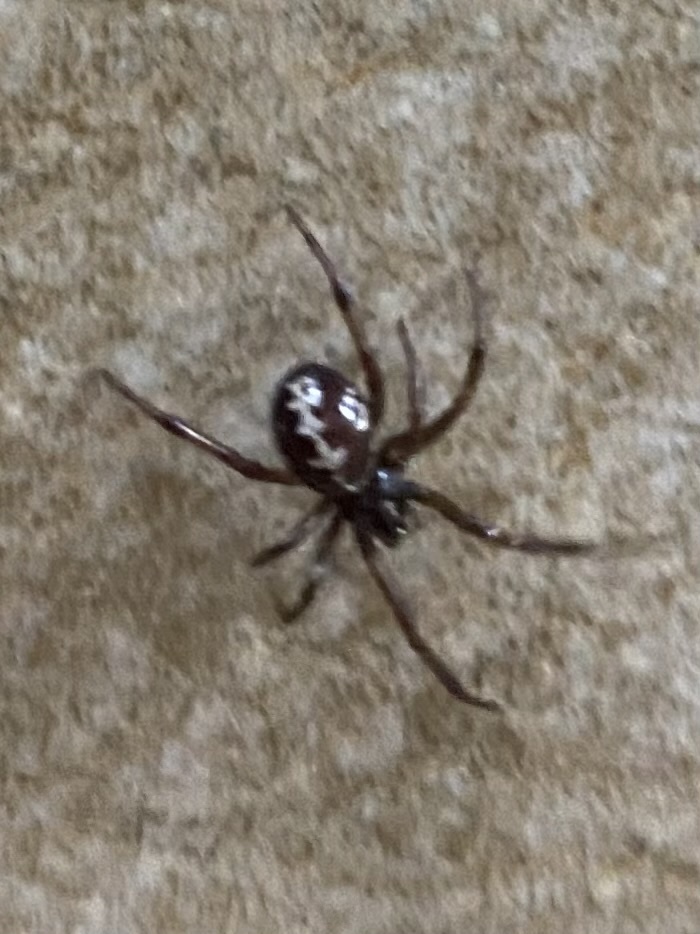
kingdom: Animalia
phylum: Arthropoda
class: Arachnida
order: Araneae
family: Theridiidae
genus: Steatoda
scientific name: Steatoda paykulliana
